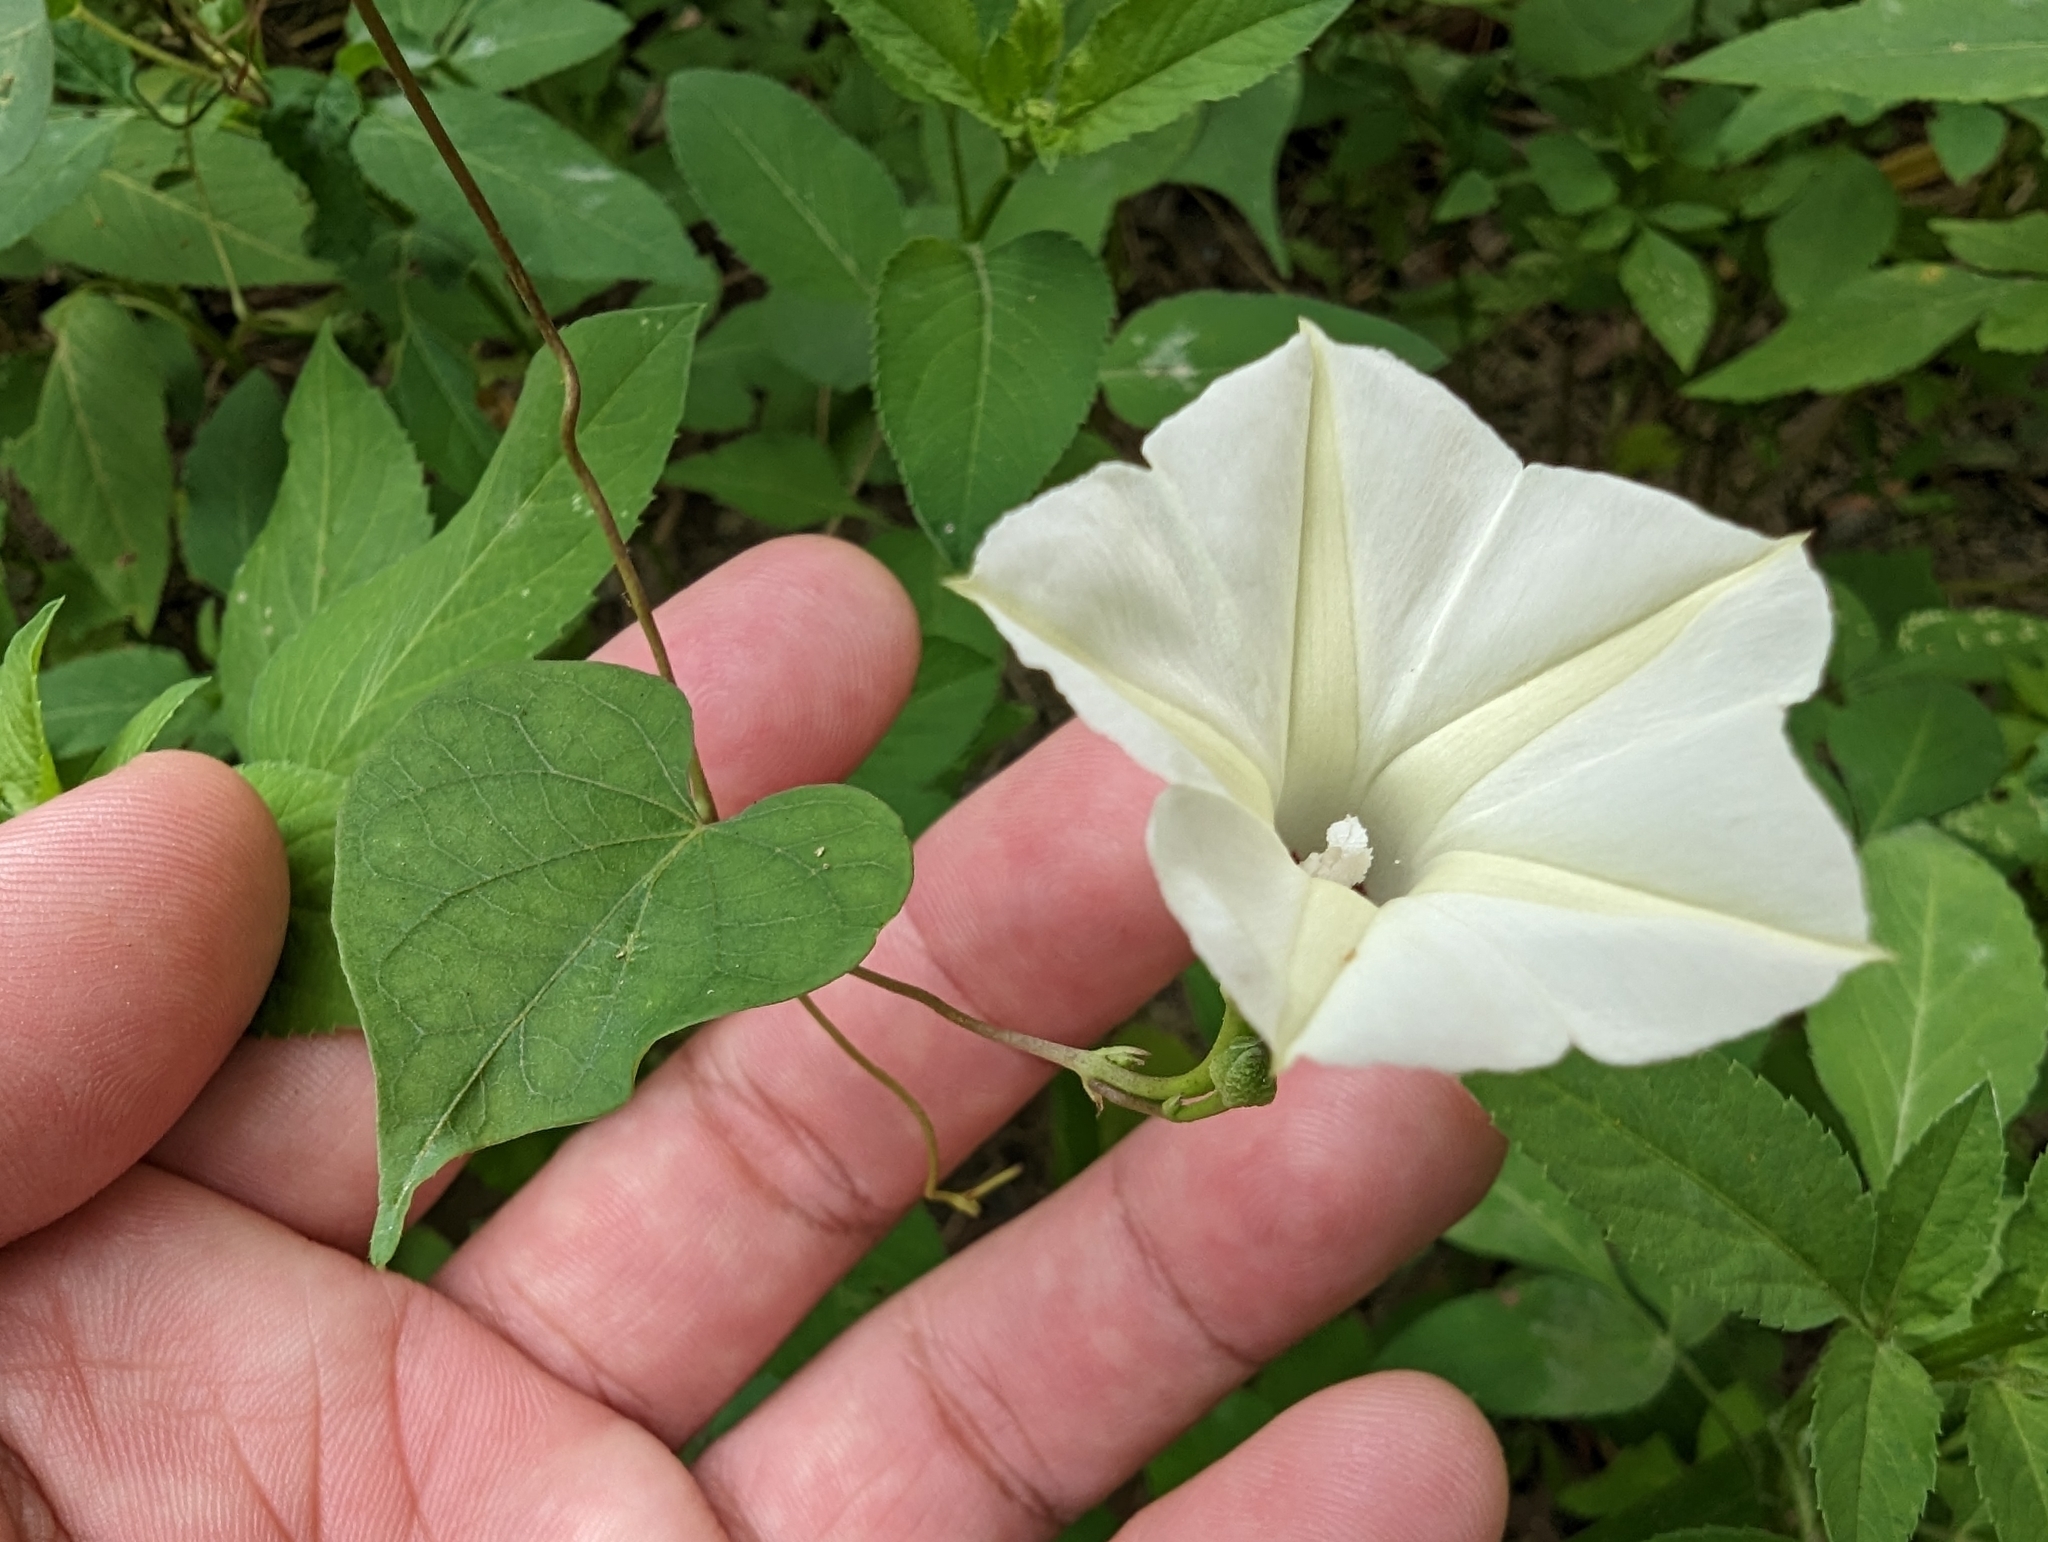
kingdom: Plantae
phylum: Tracheophyta
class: Magnoliopsida
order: Solanales
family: Convolvulaceae
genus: Ipomoea
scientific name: Ipomoea obscura
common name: Obscure morning-glory
